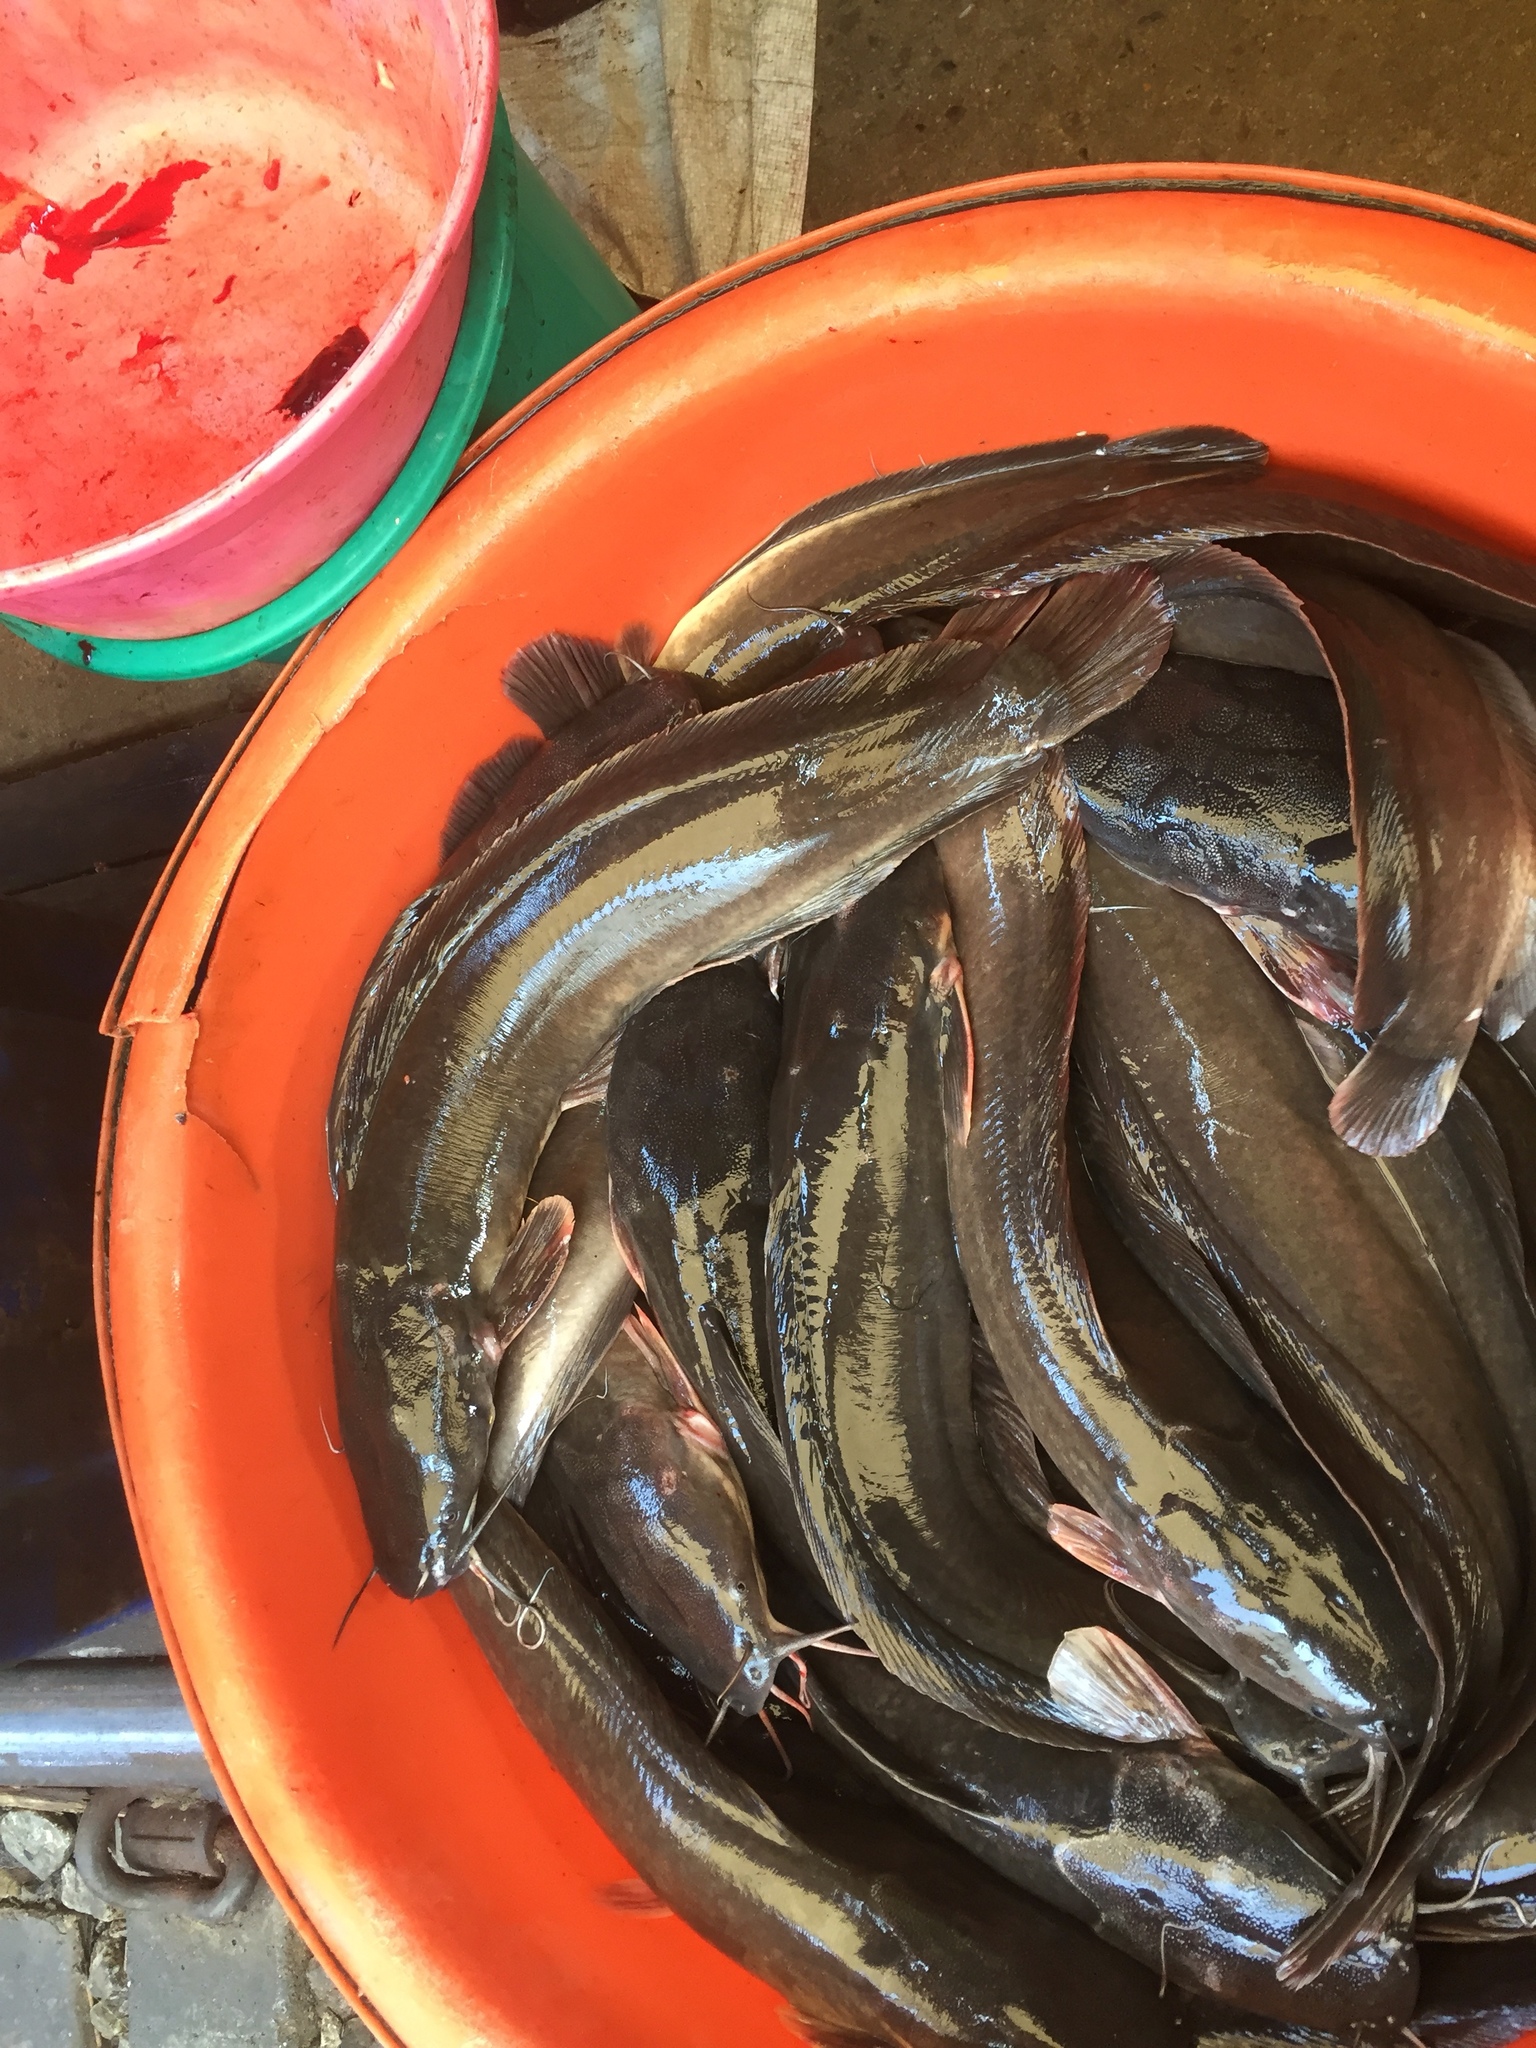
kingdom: Animalia
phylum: Chordata
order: Siluriformes
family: Clariidae
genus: Clarias
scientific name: Clarias gariepinus
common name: African catfish
